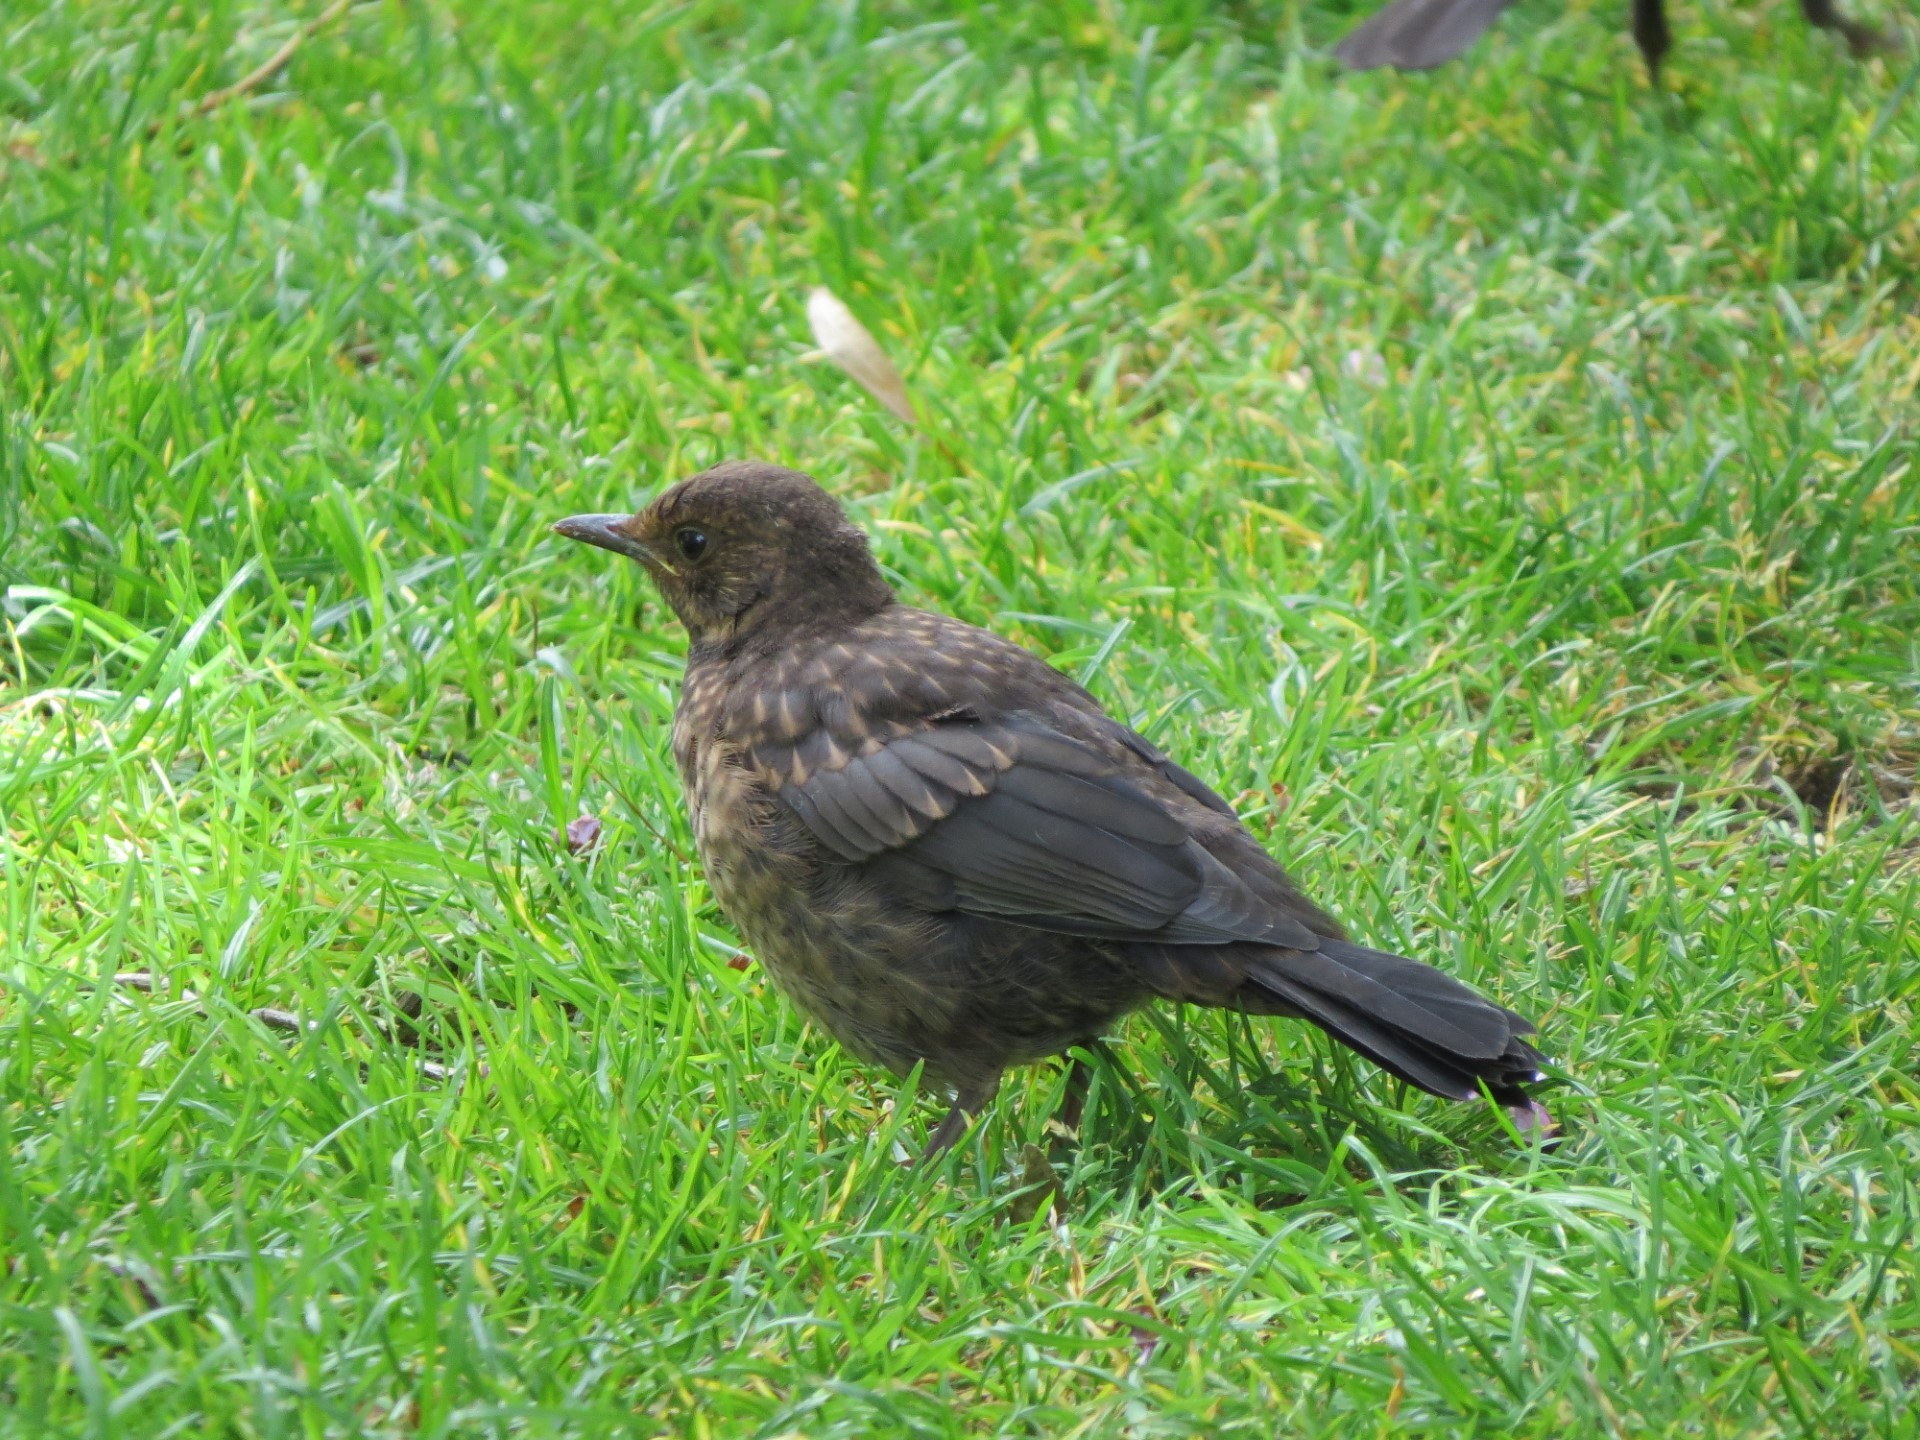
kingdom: Animalia
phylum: Chordata
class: Aves
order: Passeriformes
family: Turdidae
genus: Turdus
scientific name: Turdus merula
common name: Common blackbird
